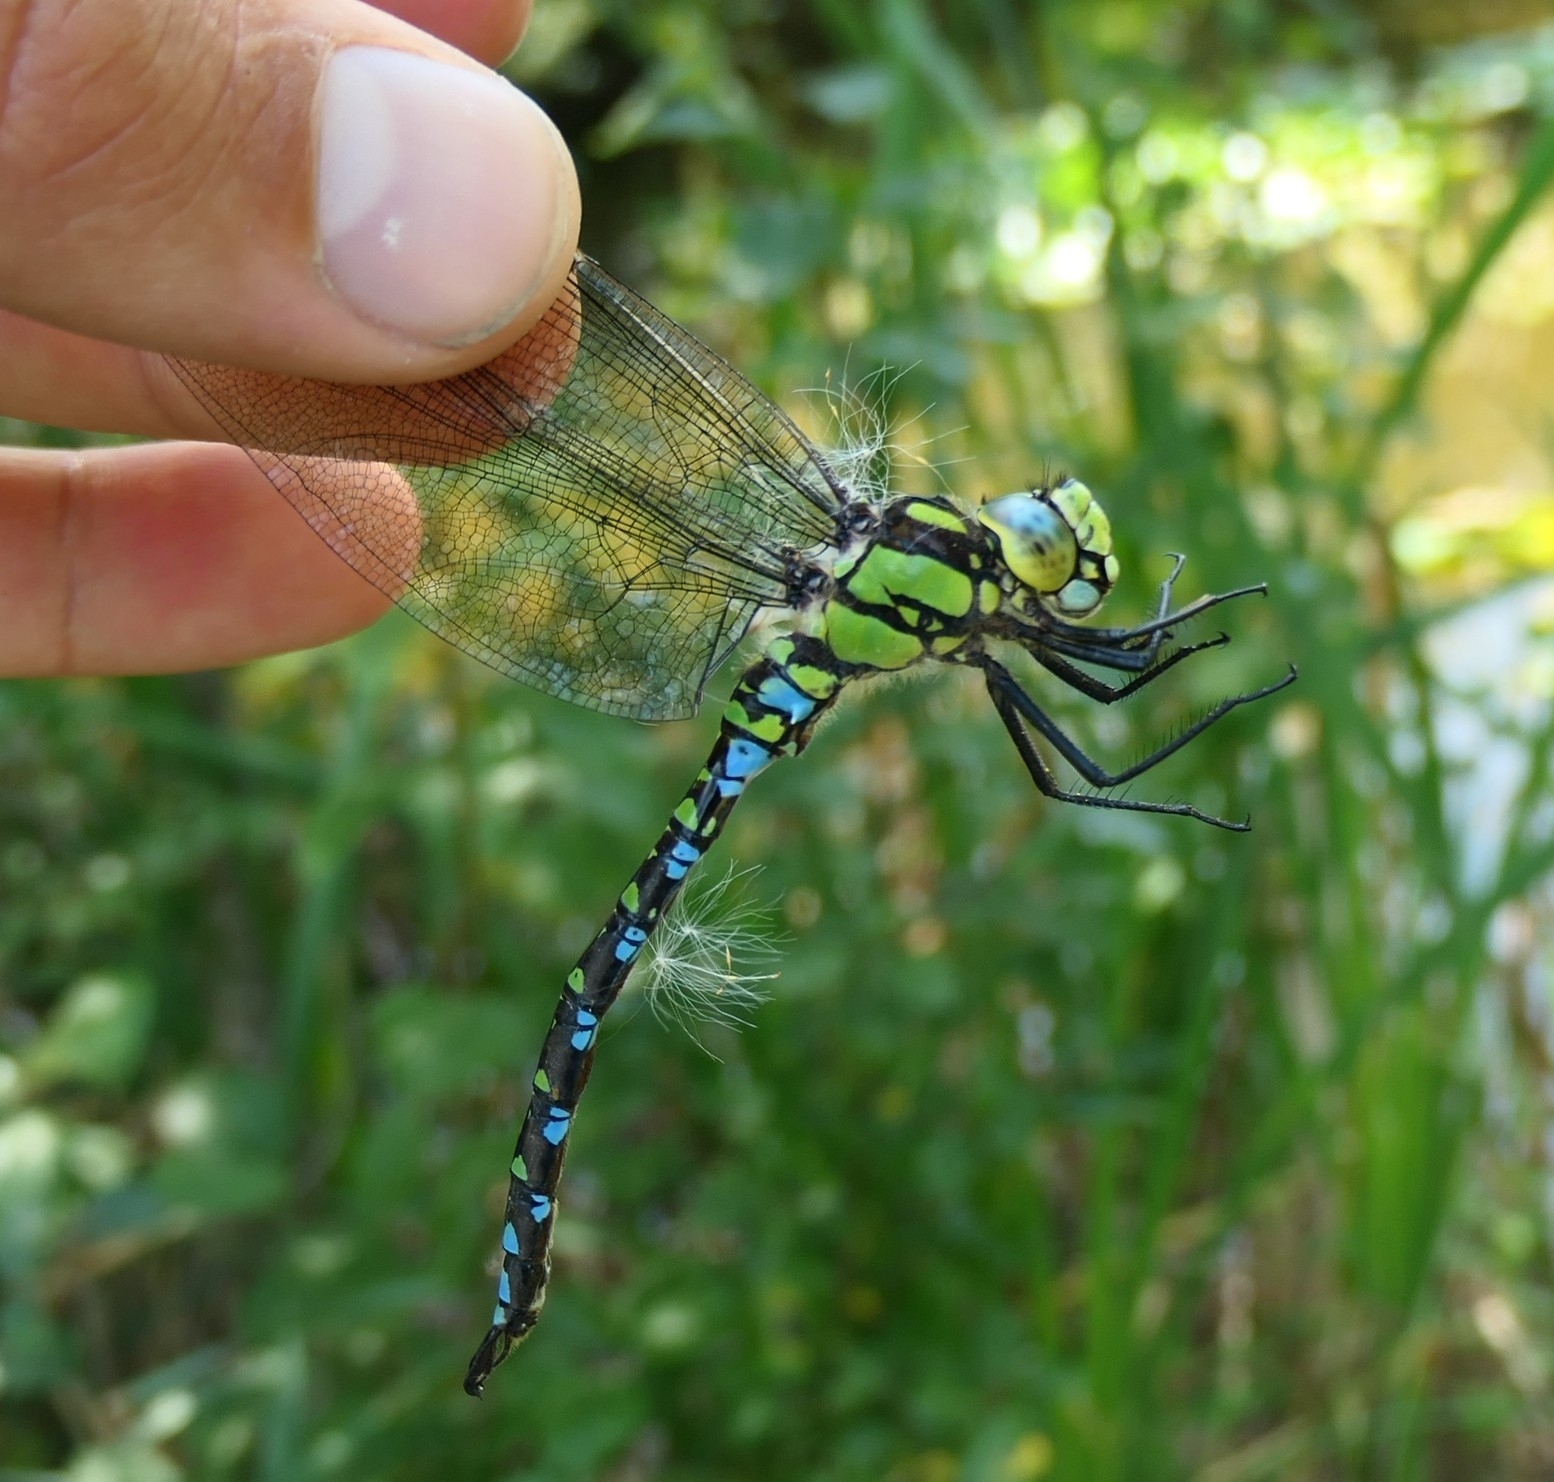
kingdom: Animalia
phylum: Arthropoda
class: Insecta
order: Odonata
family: Aeshnidae
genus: Aeshna
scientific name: Aeshna cyanea
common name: Southern hawker
